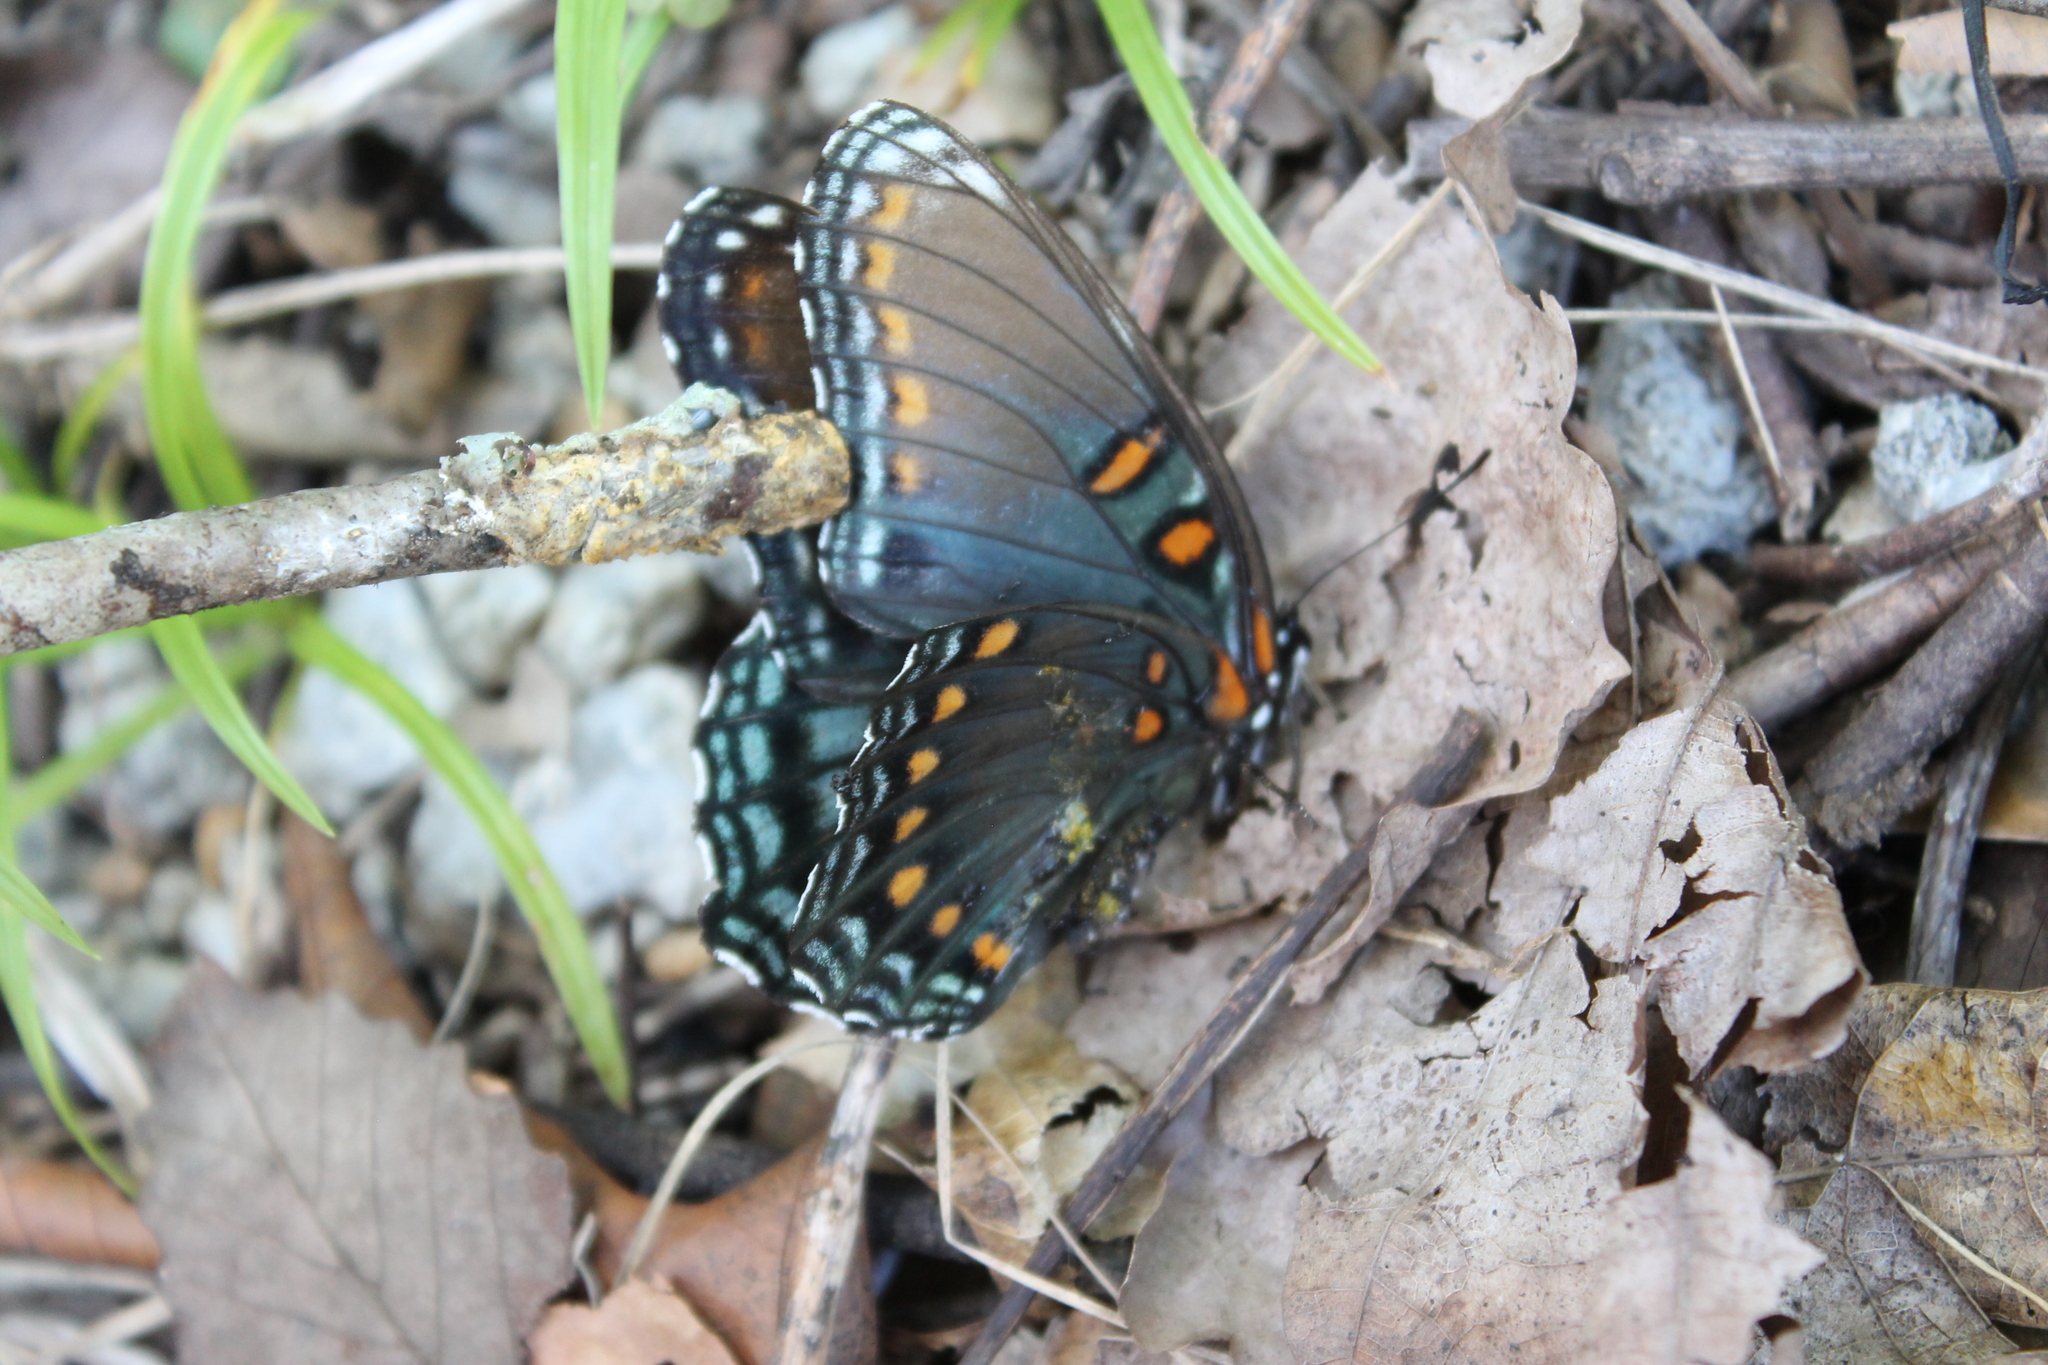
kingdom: Animalia
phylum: Arthropoda
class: Insecta
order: Lepidoptera
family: Nymphalidae
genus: Limenitis
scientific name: Limenitis astyanax
